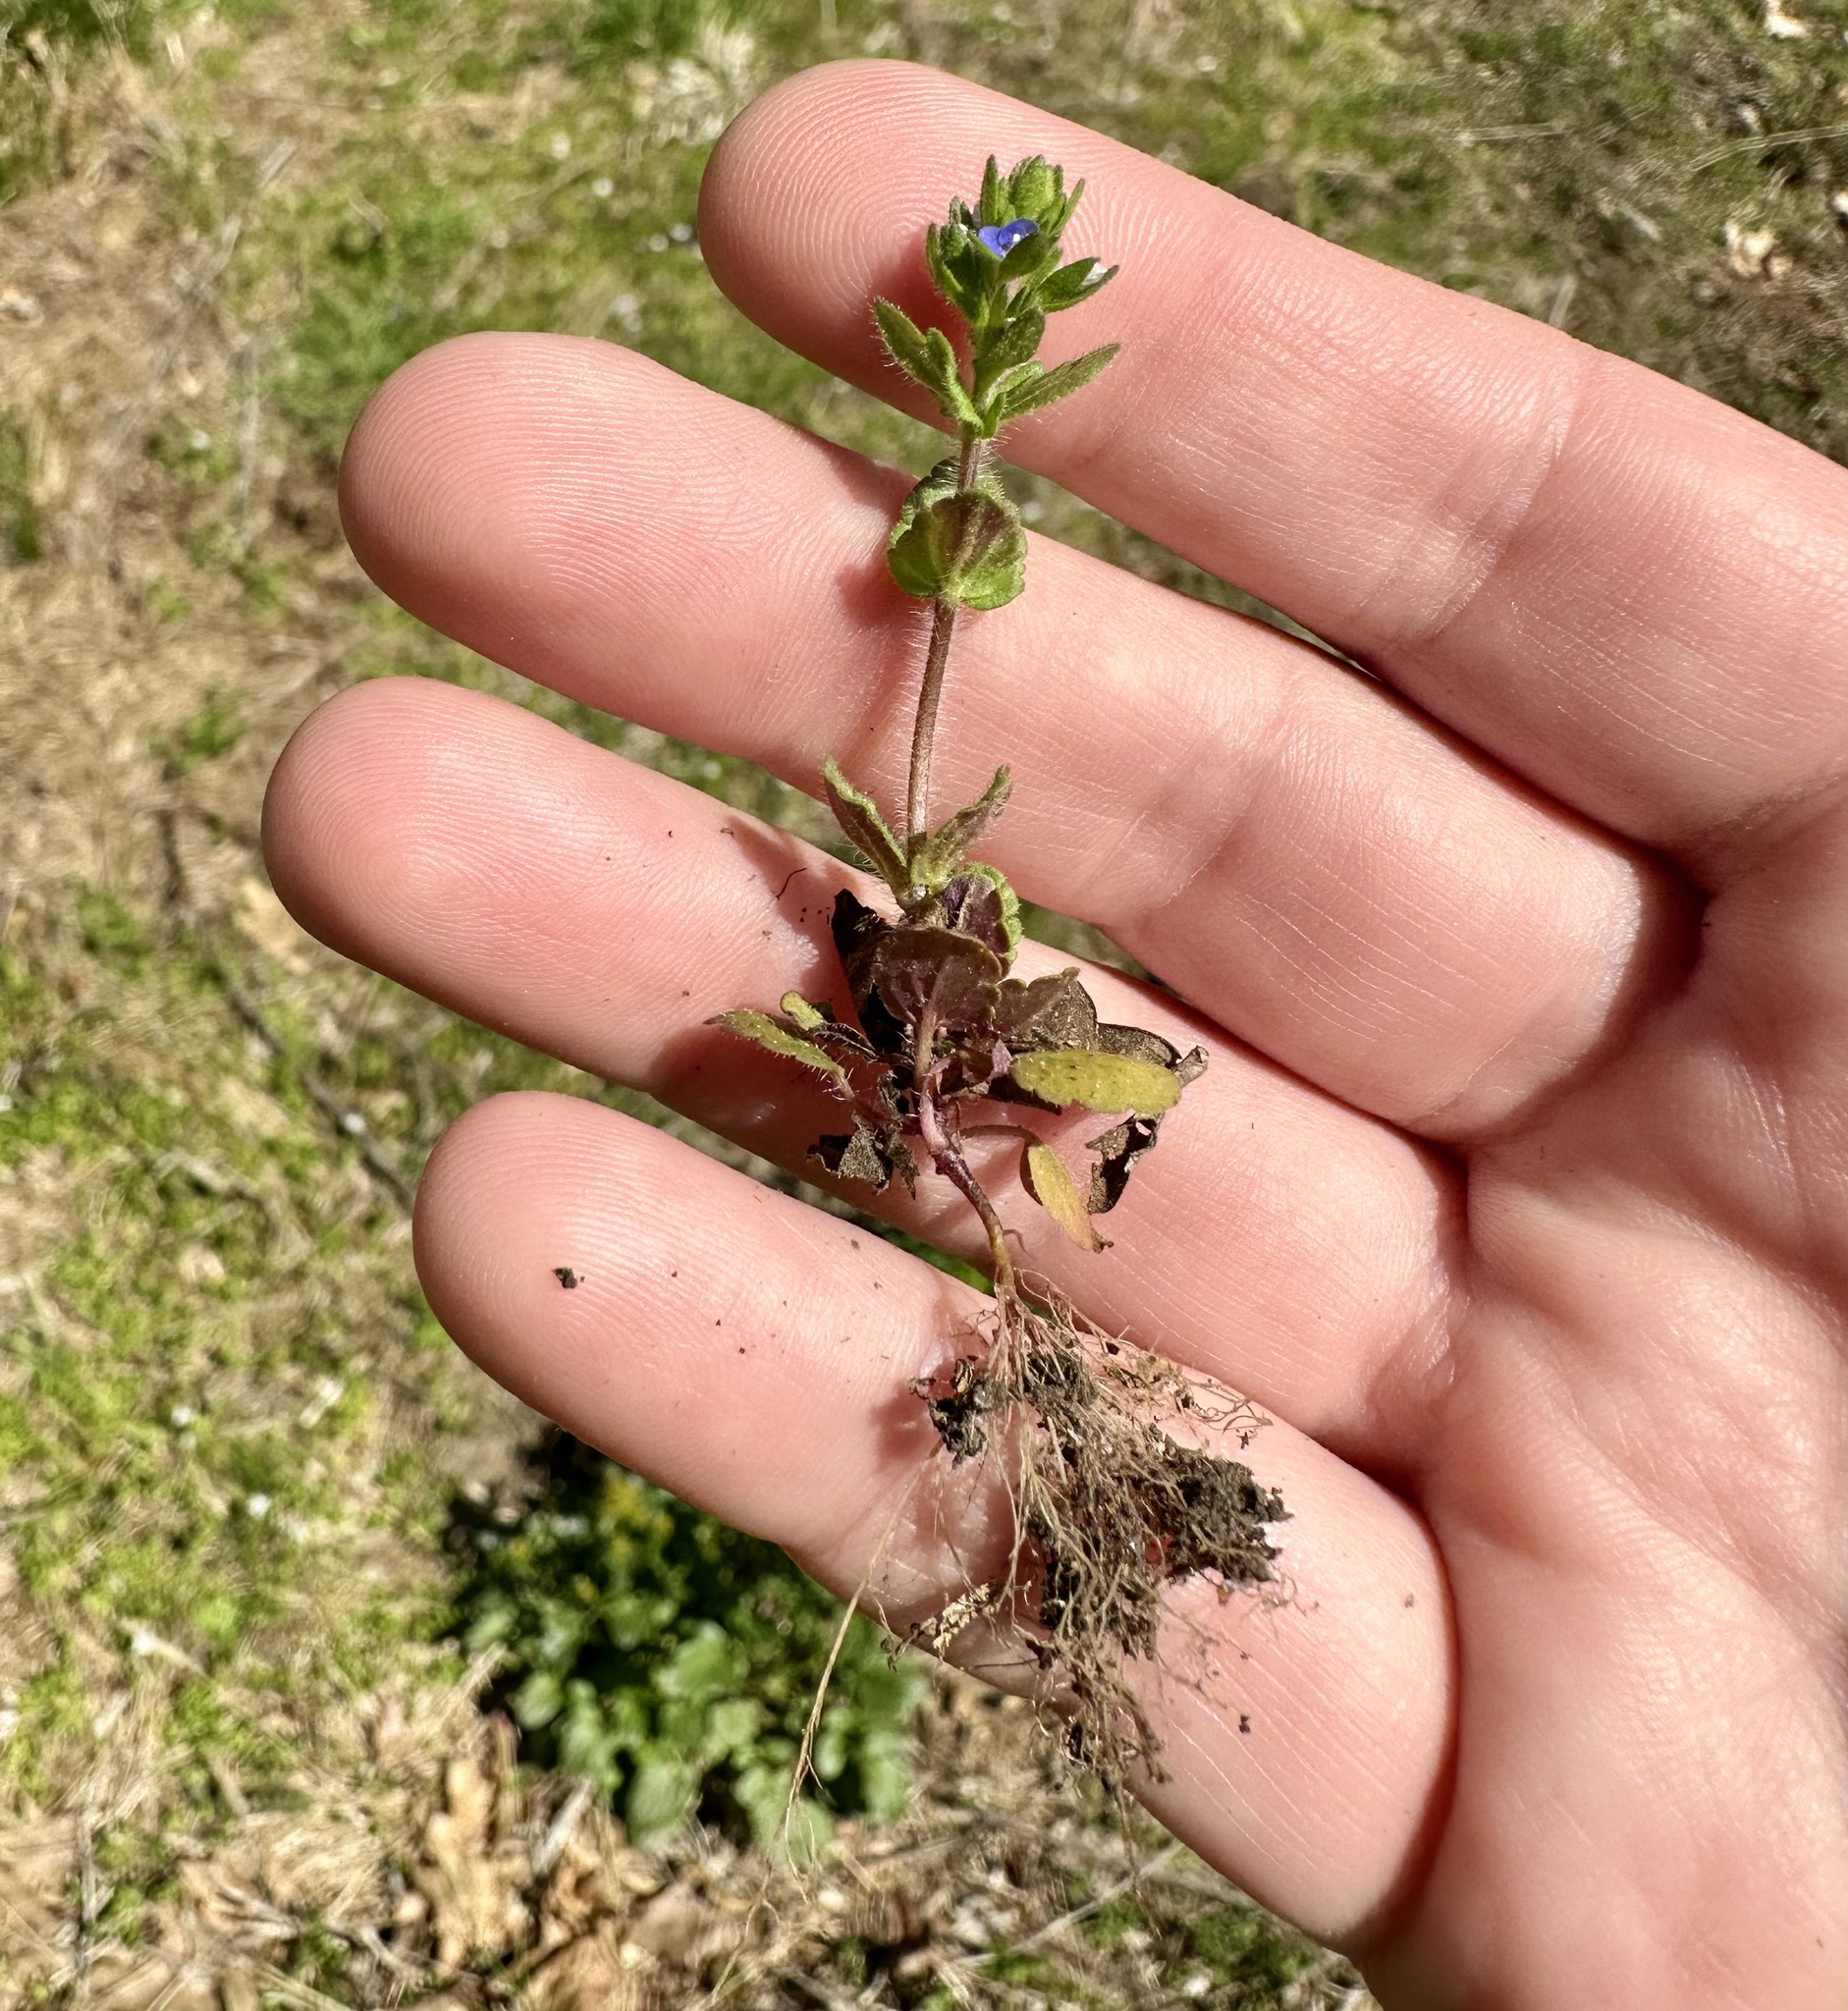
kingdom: Plantae
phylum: Tracheophyta
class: Magnoliopsida
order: Lamiales
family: Plantaginaceae
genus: Veronica
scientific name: Veronica arvensis
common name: Corn speedwell
